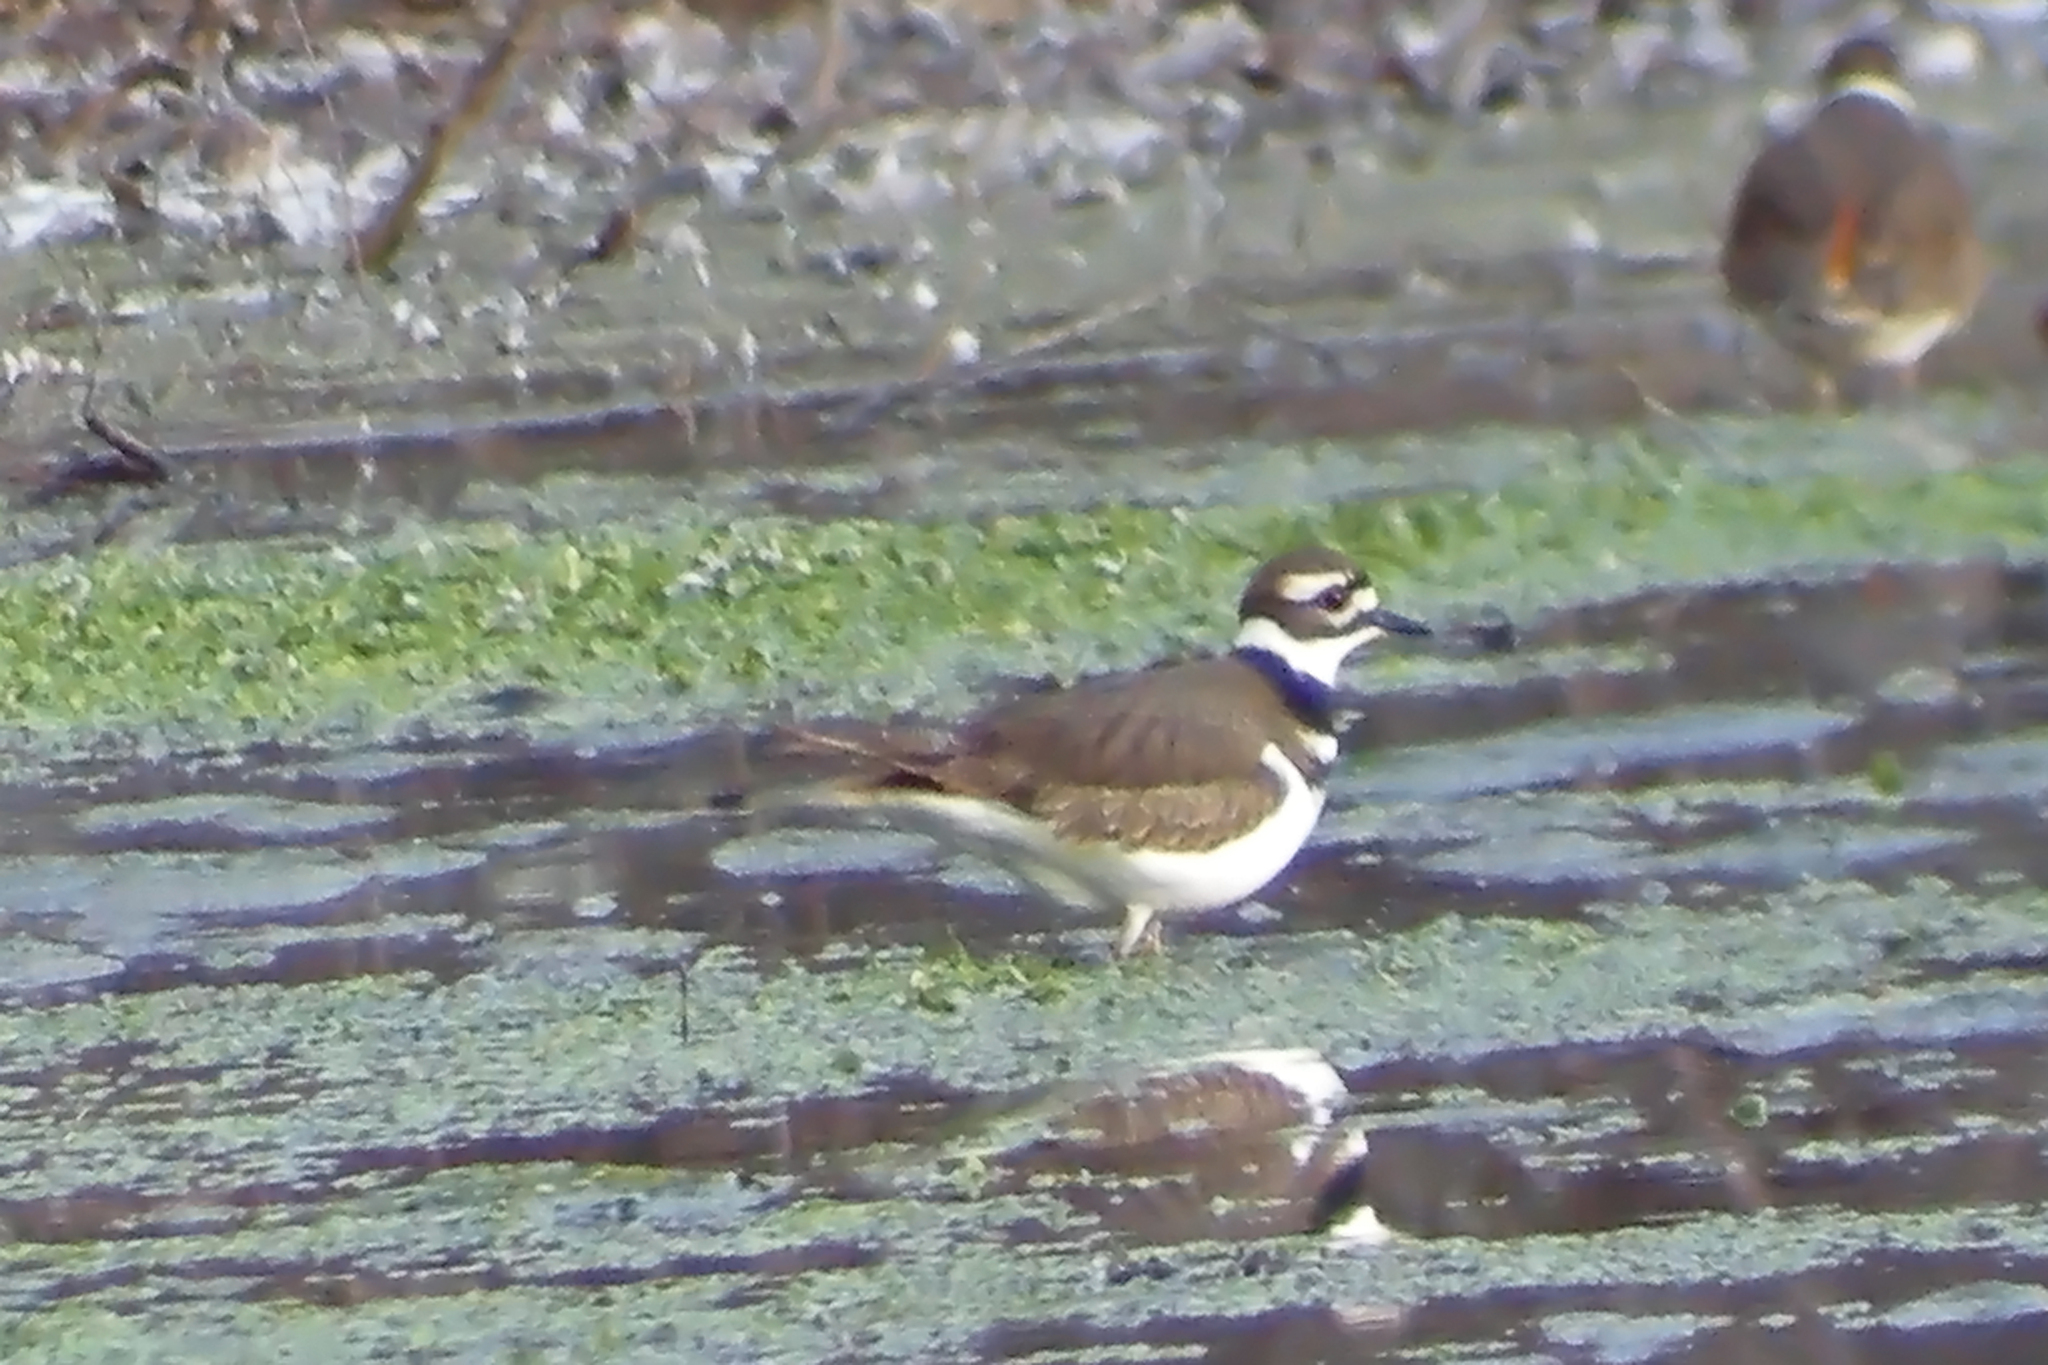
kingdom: Animalia
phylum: Chordata
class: Aves
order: Charadriiformes
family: Charadriidae
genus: Charadrius
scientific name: Charadrius vociferus
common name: Killdeer
